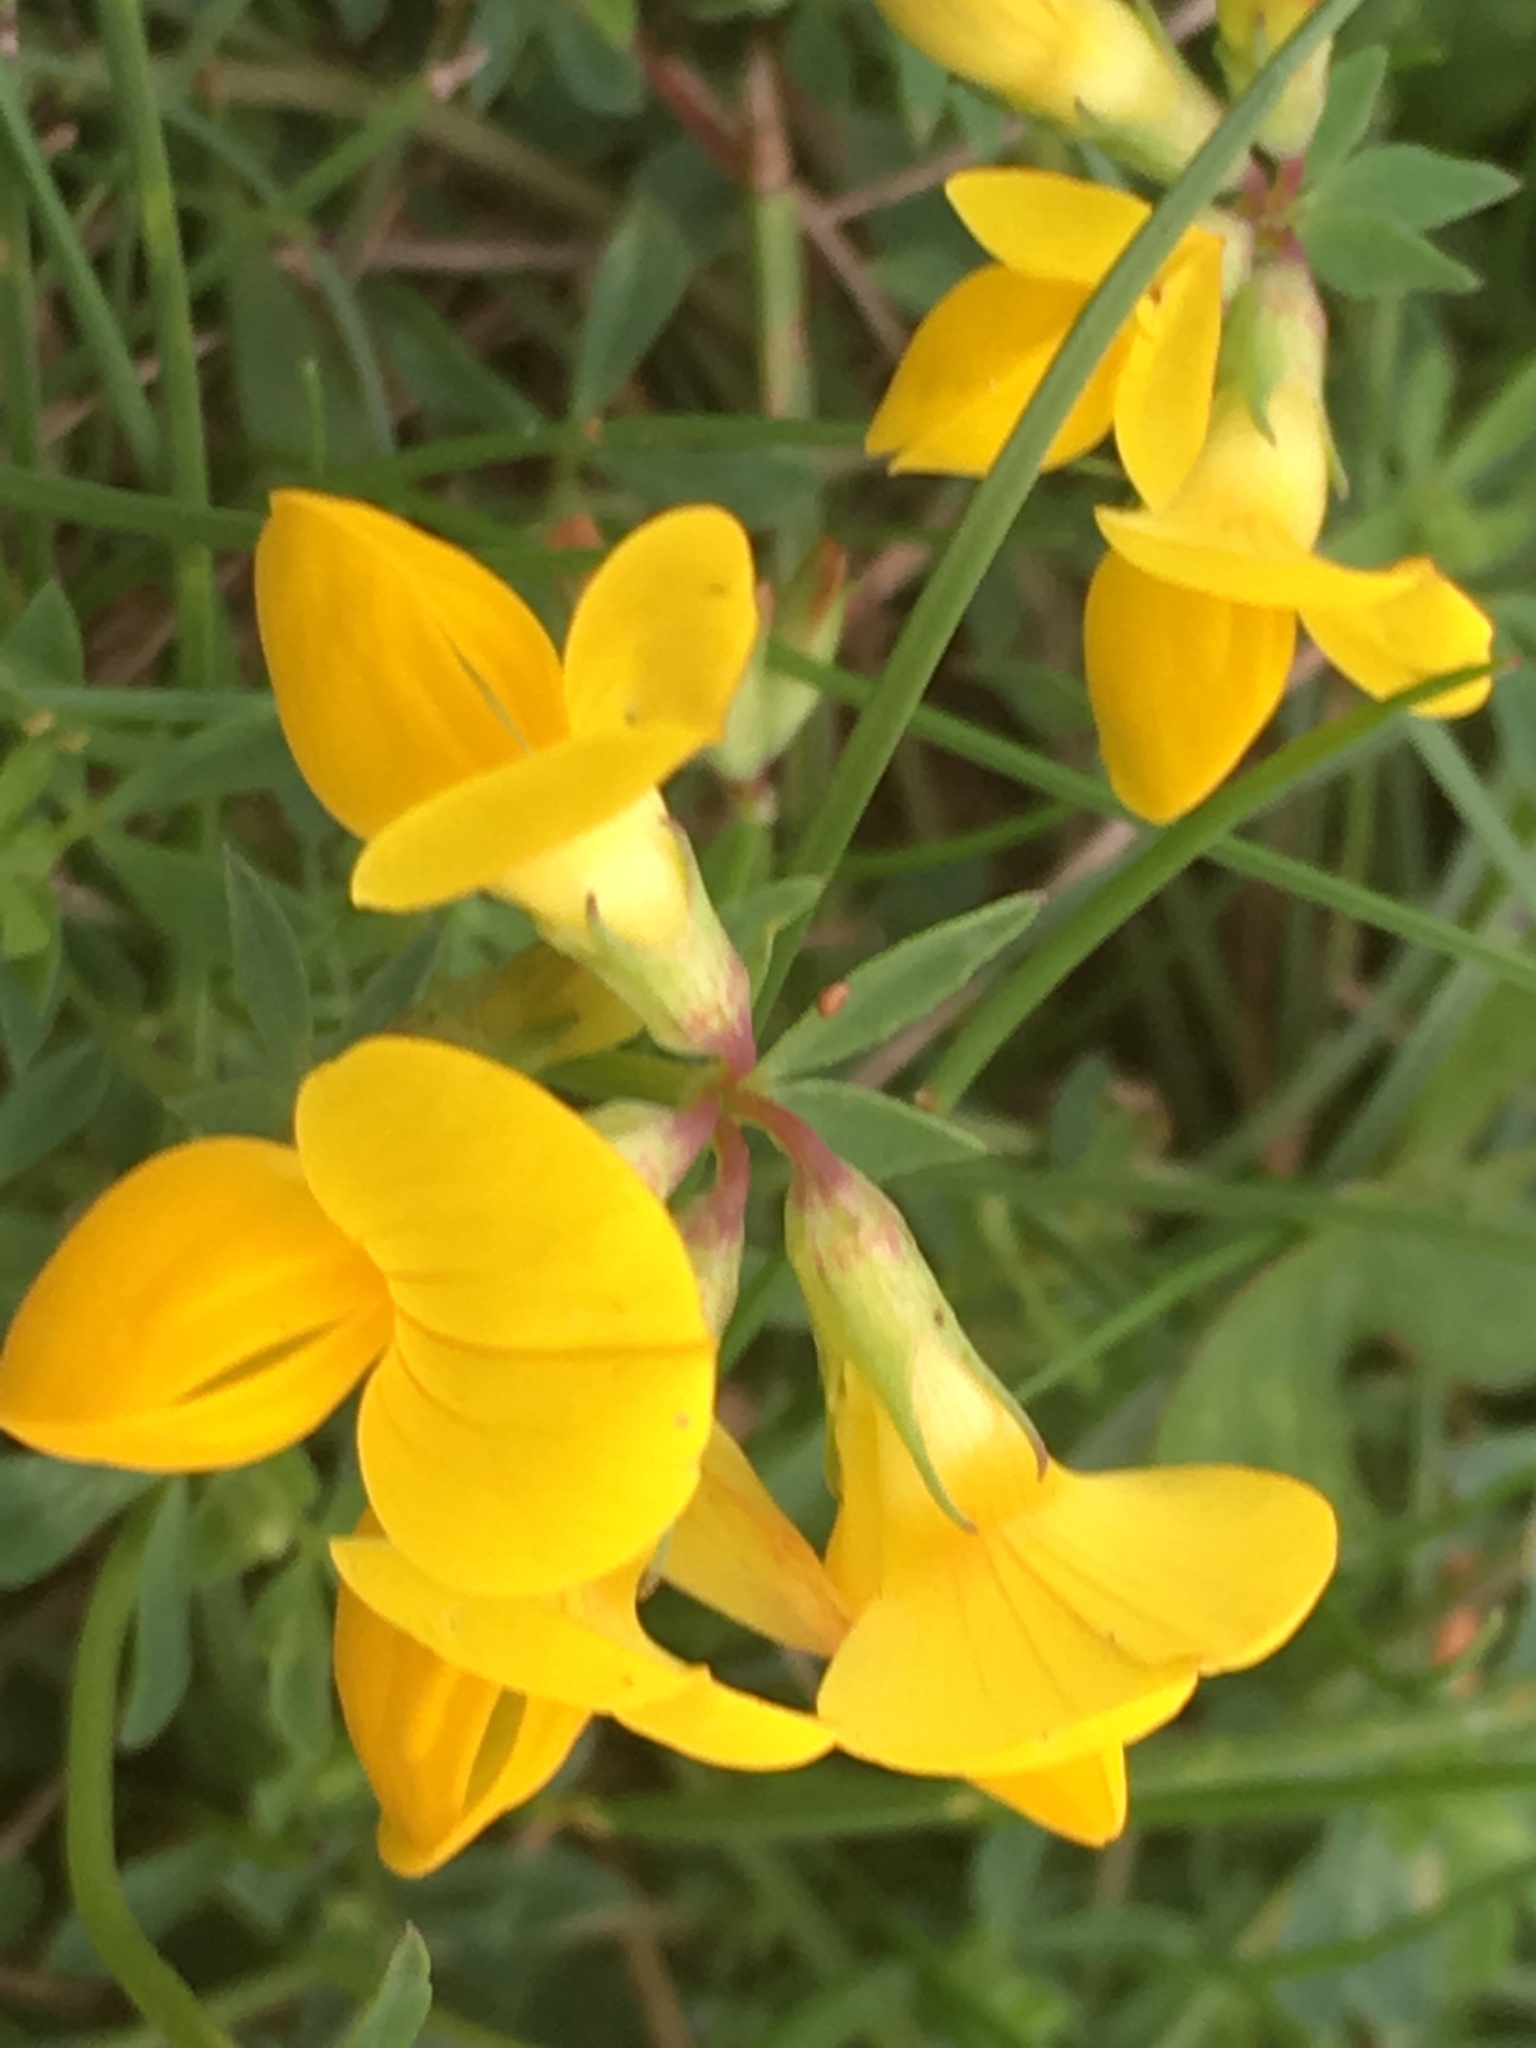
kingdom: Plantae
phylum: Tracheophyta
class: Magnoliopsida
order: Fabales
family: Fabaceae
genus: Lotus
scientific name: Lotus corniculatus
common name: Common bird's-foot-trefoil
